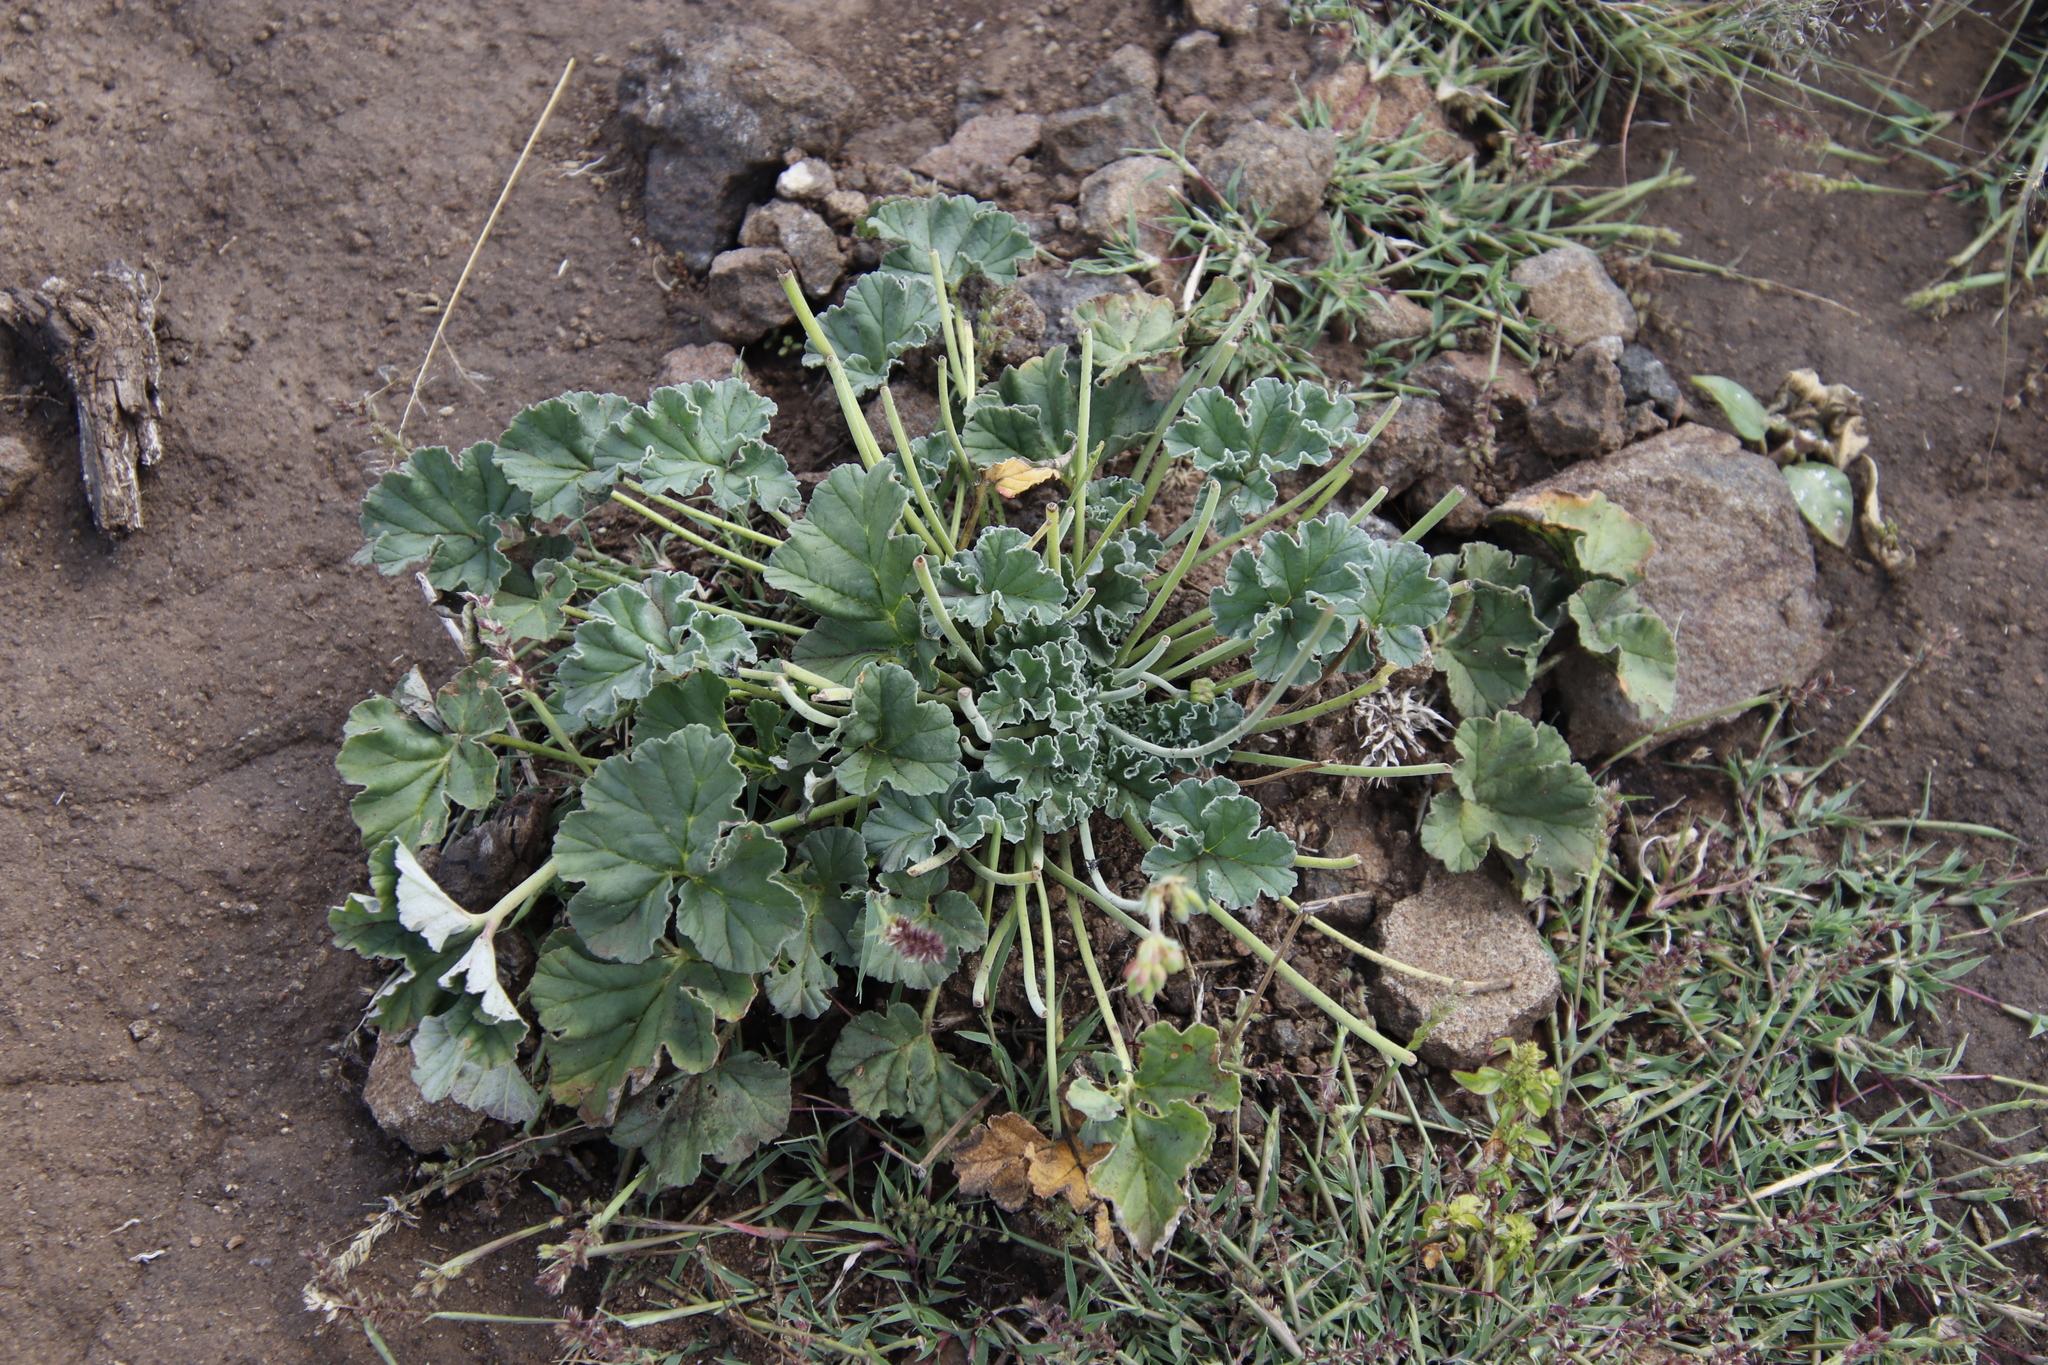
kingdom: Plantae
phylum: Tracheophyta
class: Magnoliopsida
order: Geraniales
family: Geraniaceae
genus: Pelargonium
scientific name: Pelargonium sidoides
